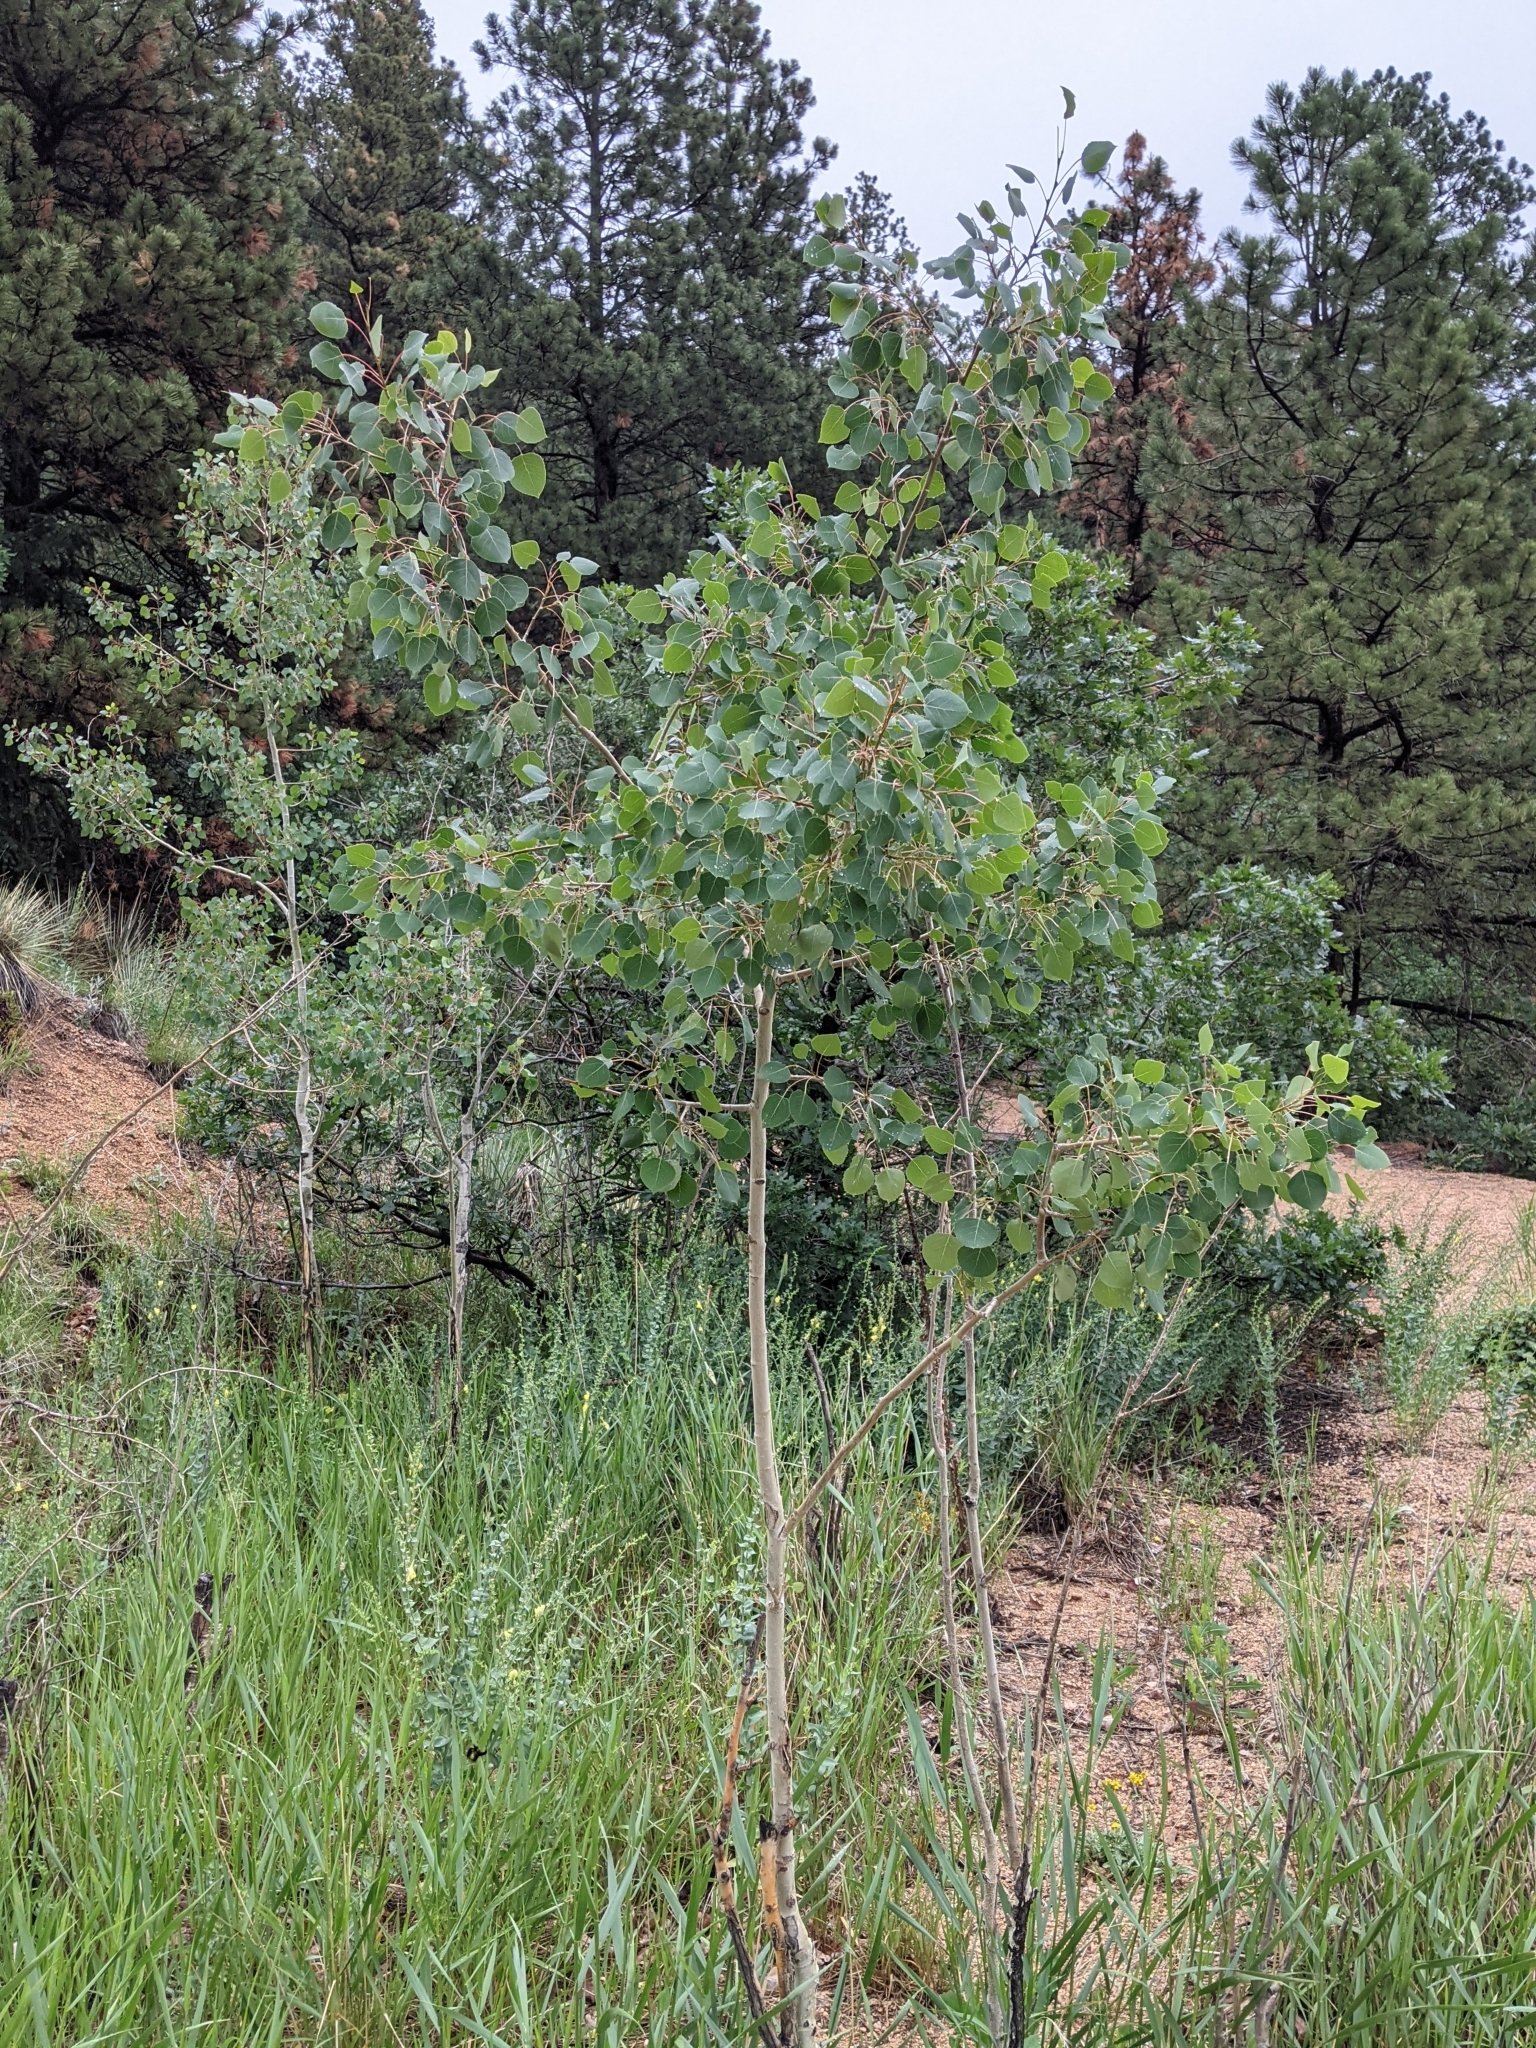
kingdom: Plantae
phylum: Tracheophyta
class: Magnoliopsida
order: Malpighiales
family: Salicaceae
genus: Populus
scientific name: Populus tremuloides
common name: Quaking aspen
